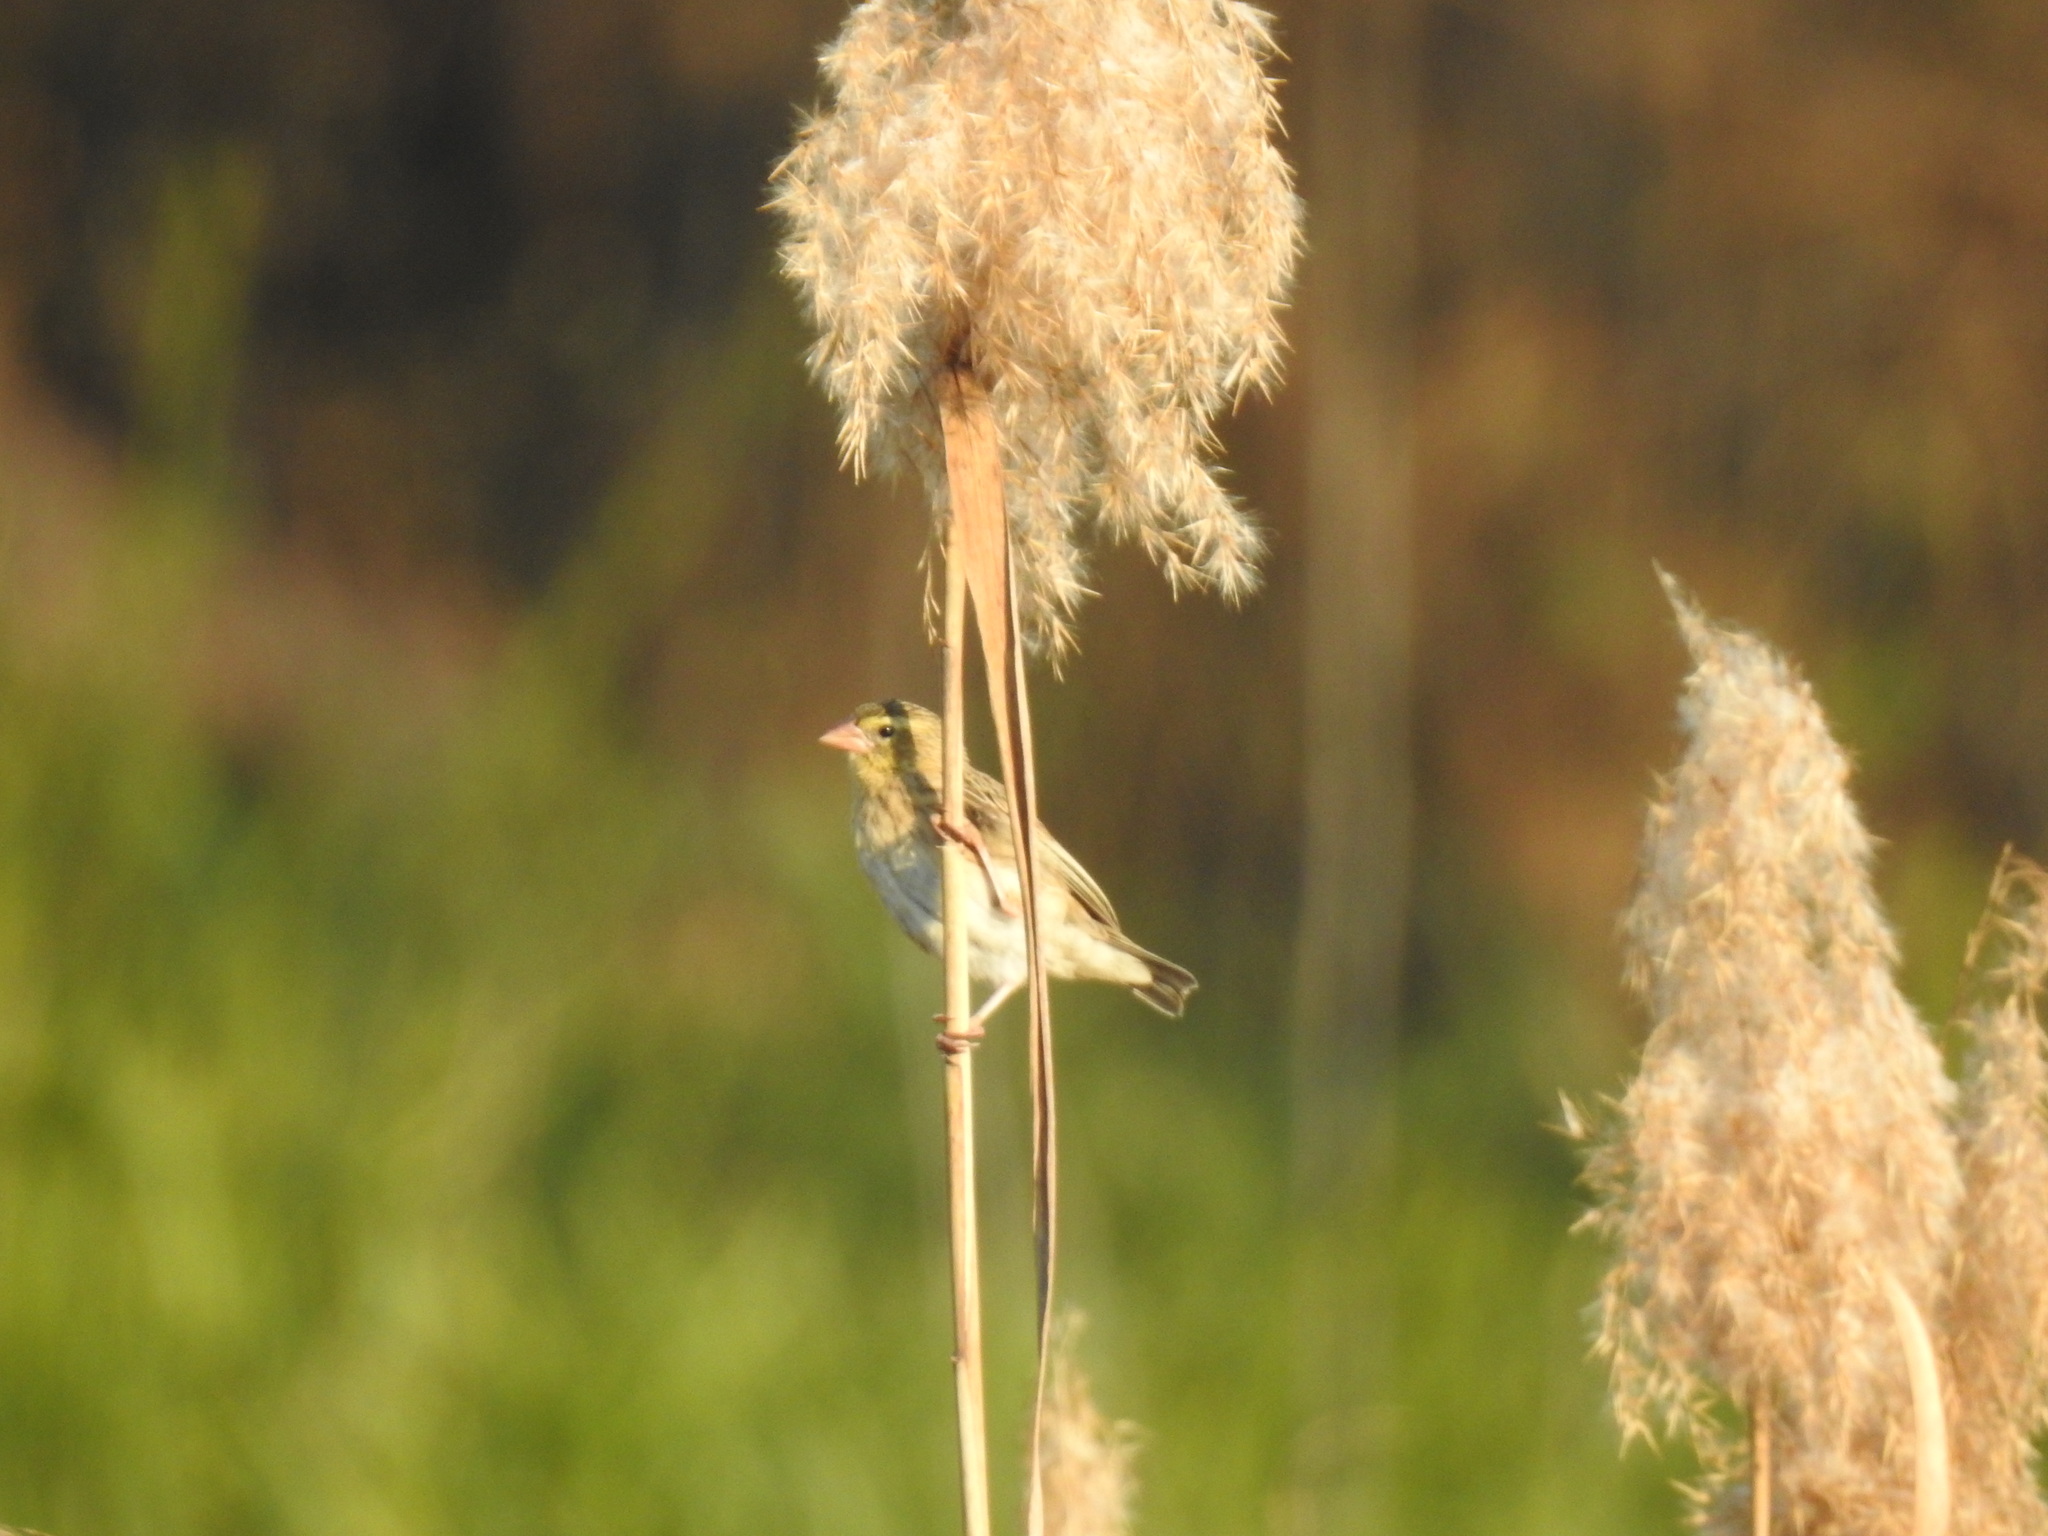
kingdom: Animalia
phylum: Chordata
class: Aves
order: Passeriformes
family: Ploceidae
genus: Euplectes
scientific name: Euplectes orix
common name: Southern red bishop
